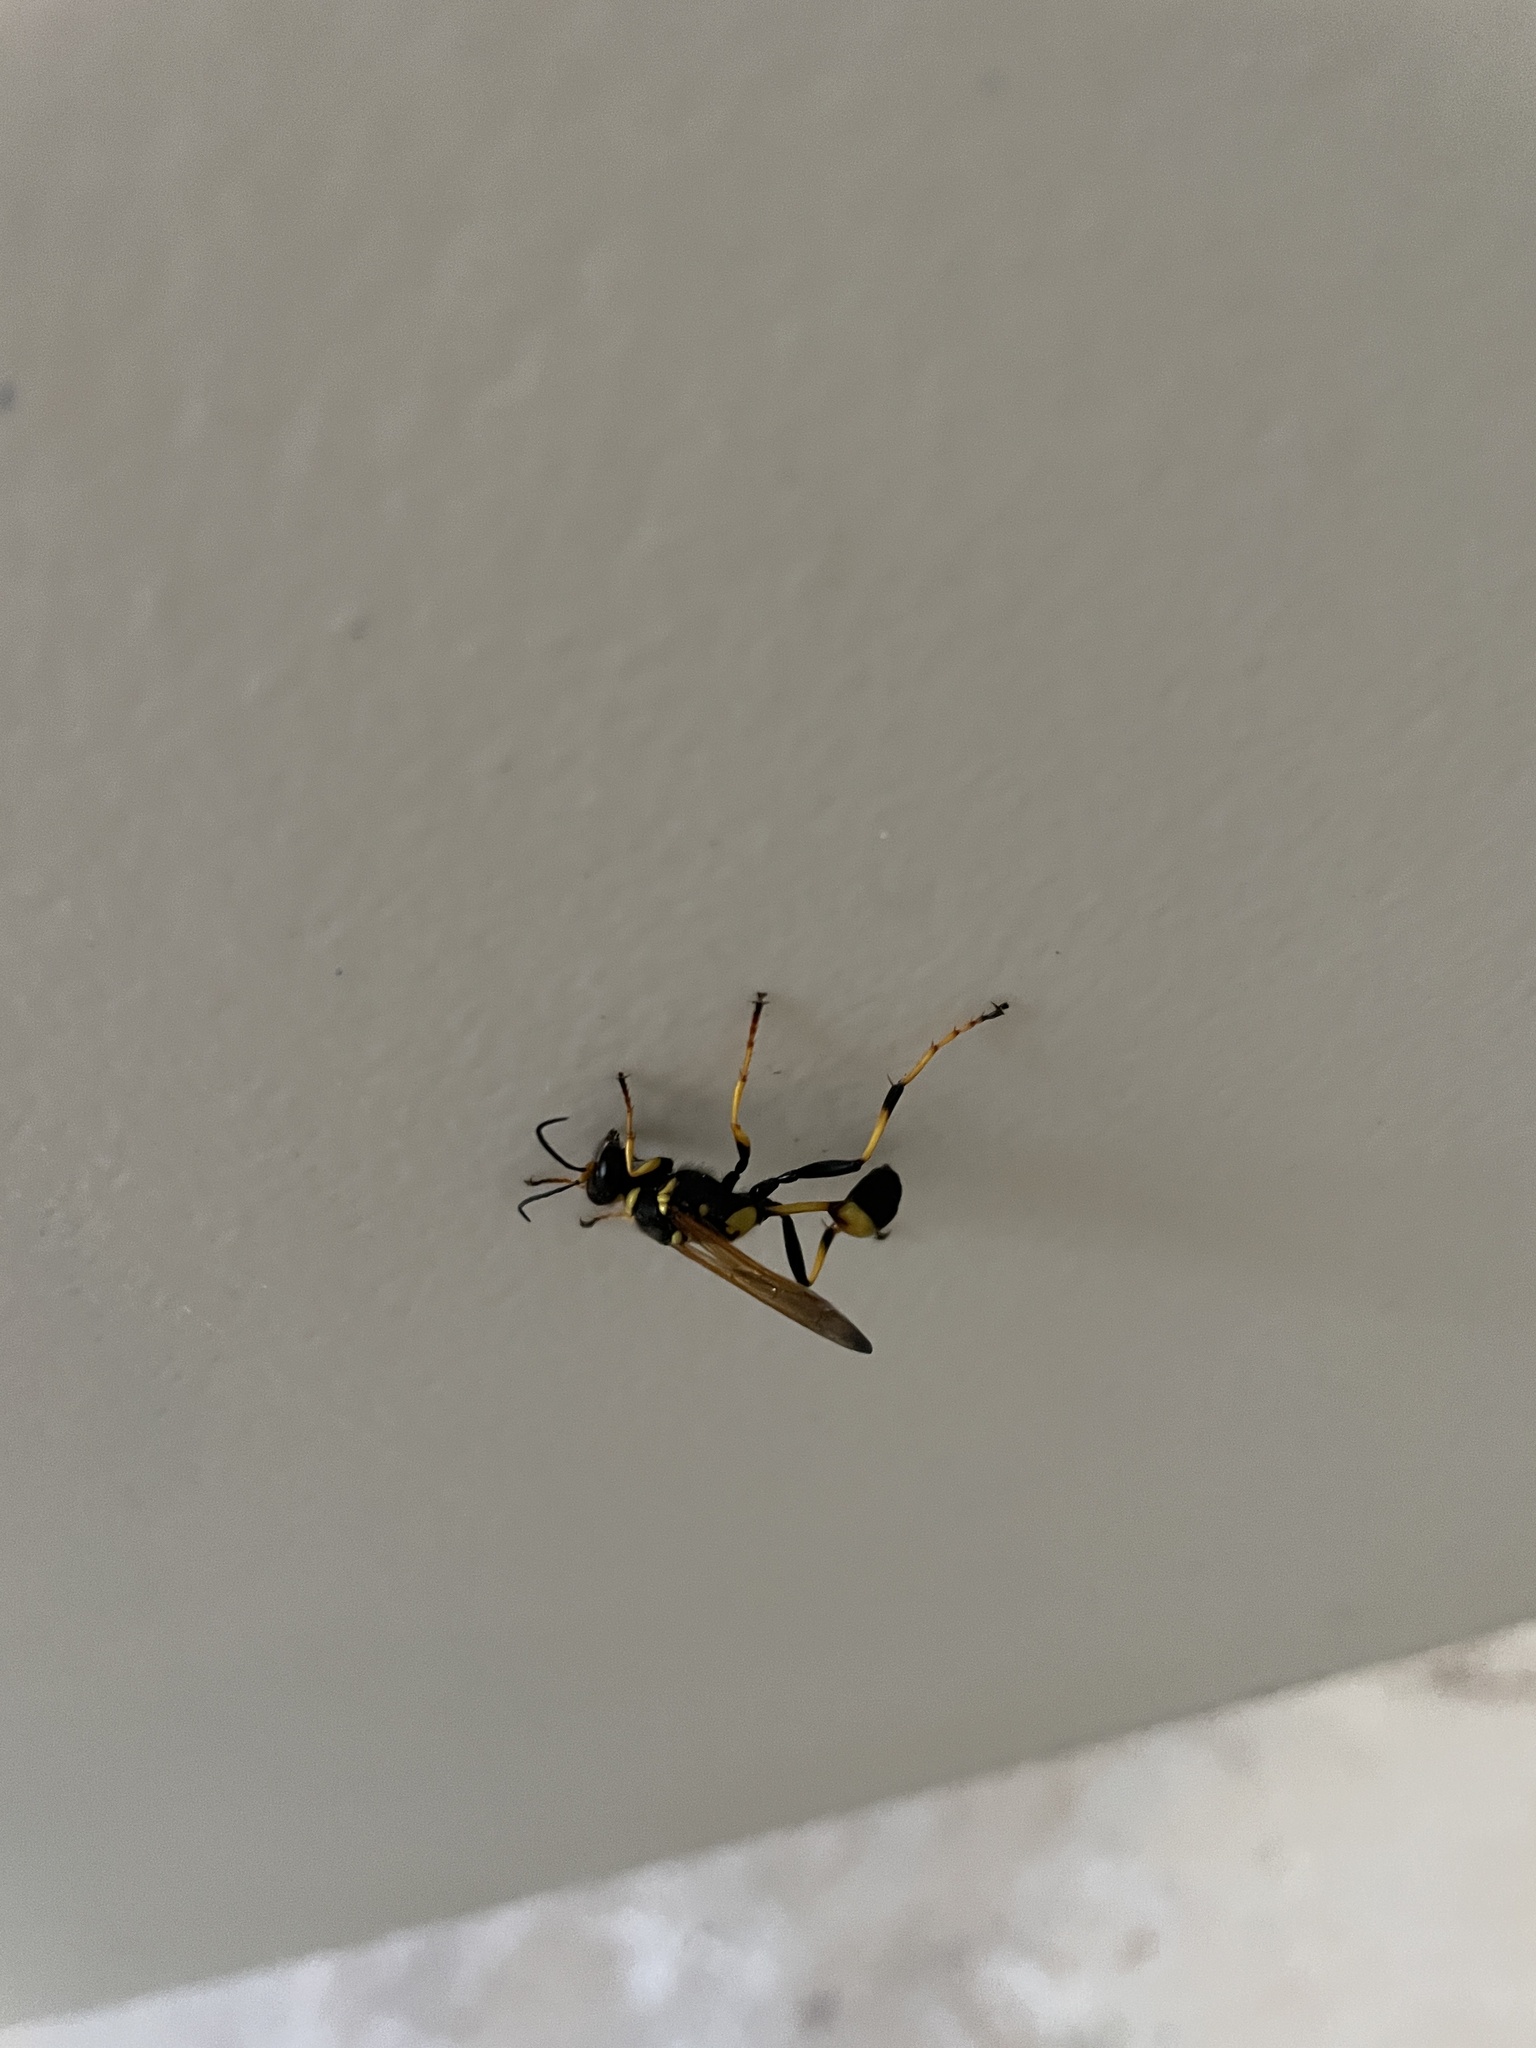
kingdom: Animalia
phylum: Arthropoda
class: Insecta
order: Hymenoptera
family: Sphecidae
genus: Sceliphron
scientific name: Sceliphron caementarium
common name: Mud dauber
